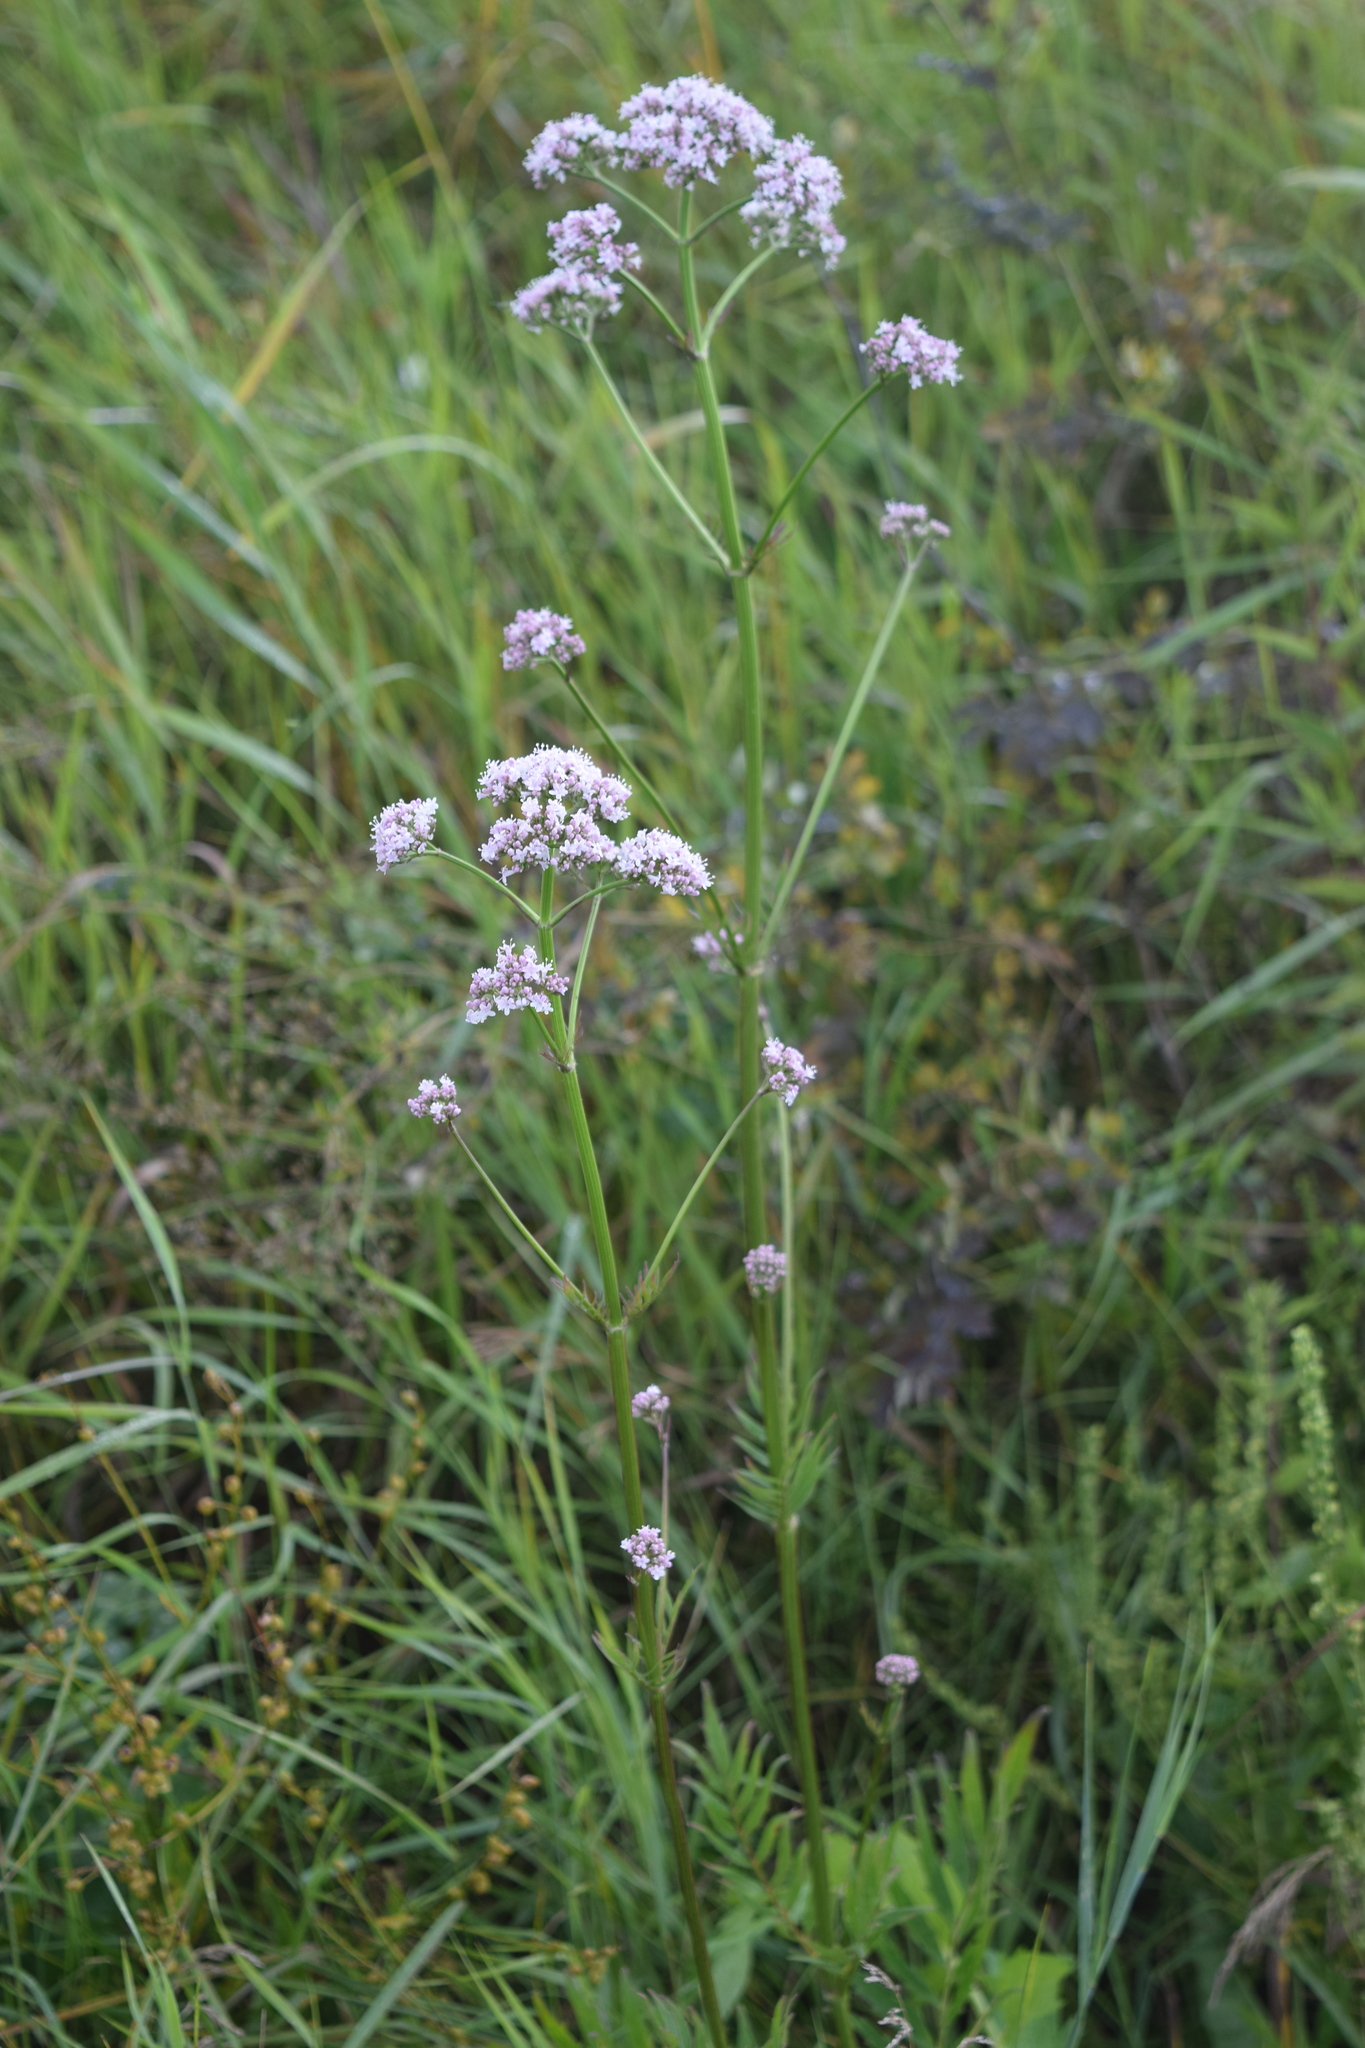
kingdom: Plantae
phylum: Tracheophyta
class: Magnoliopsida
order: Dipsacales
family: Caprifoliaceae
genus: Valeriana
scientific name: Valeriana officinalis
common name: Common valerian
